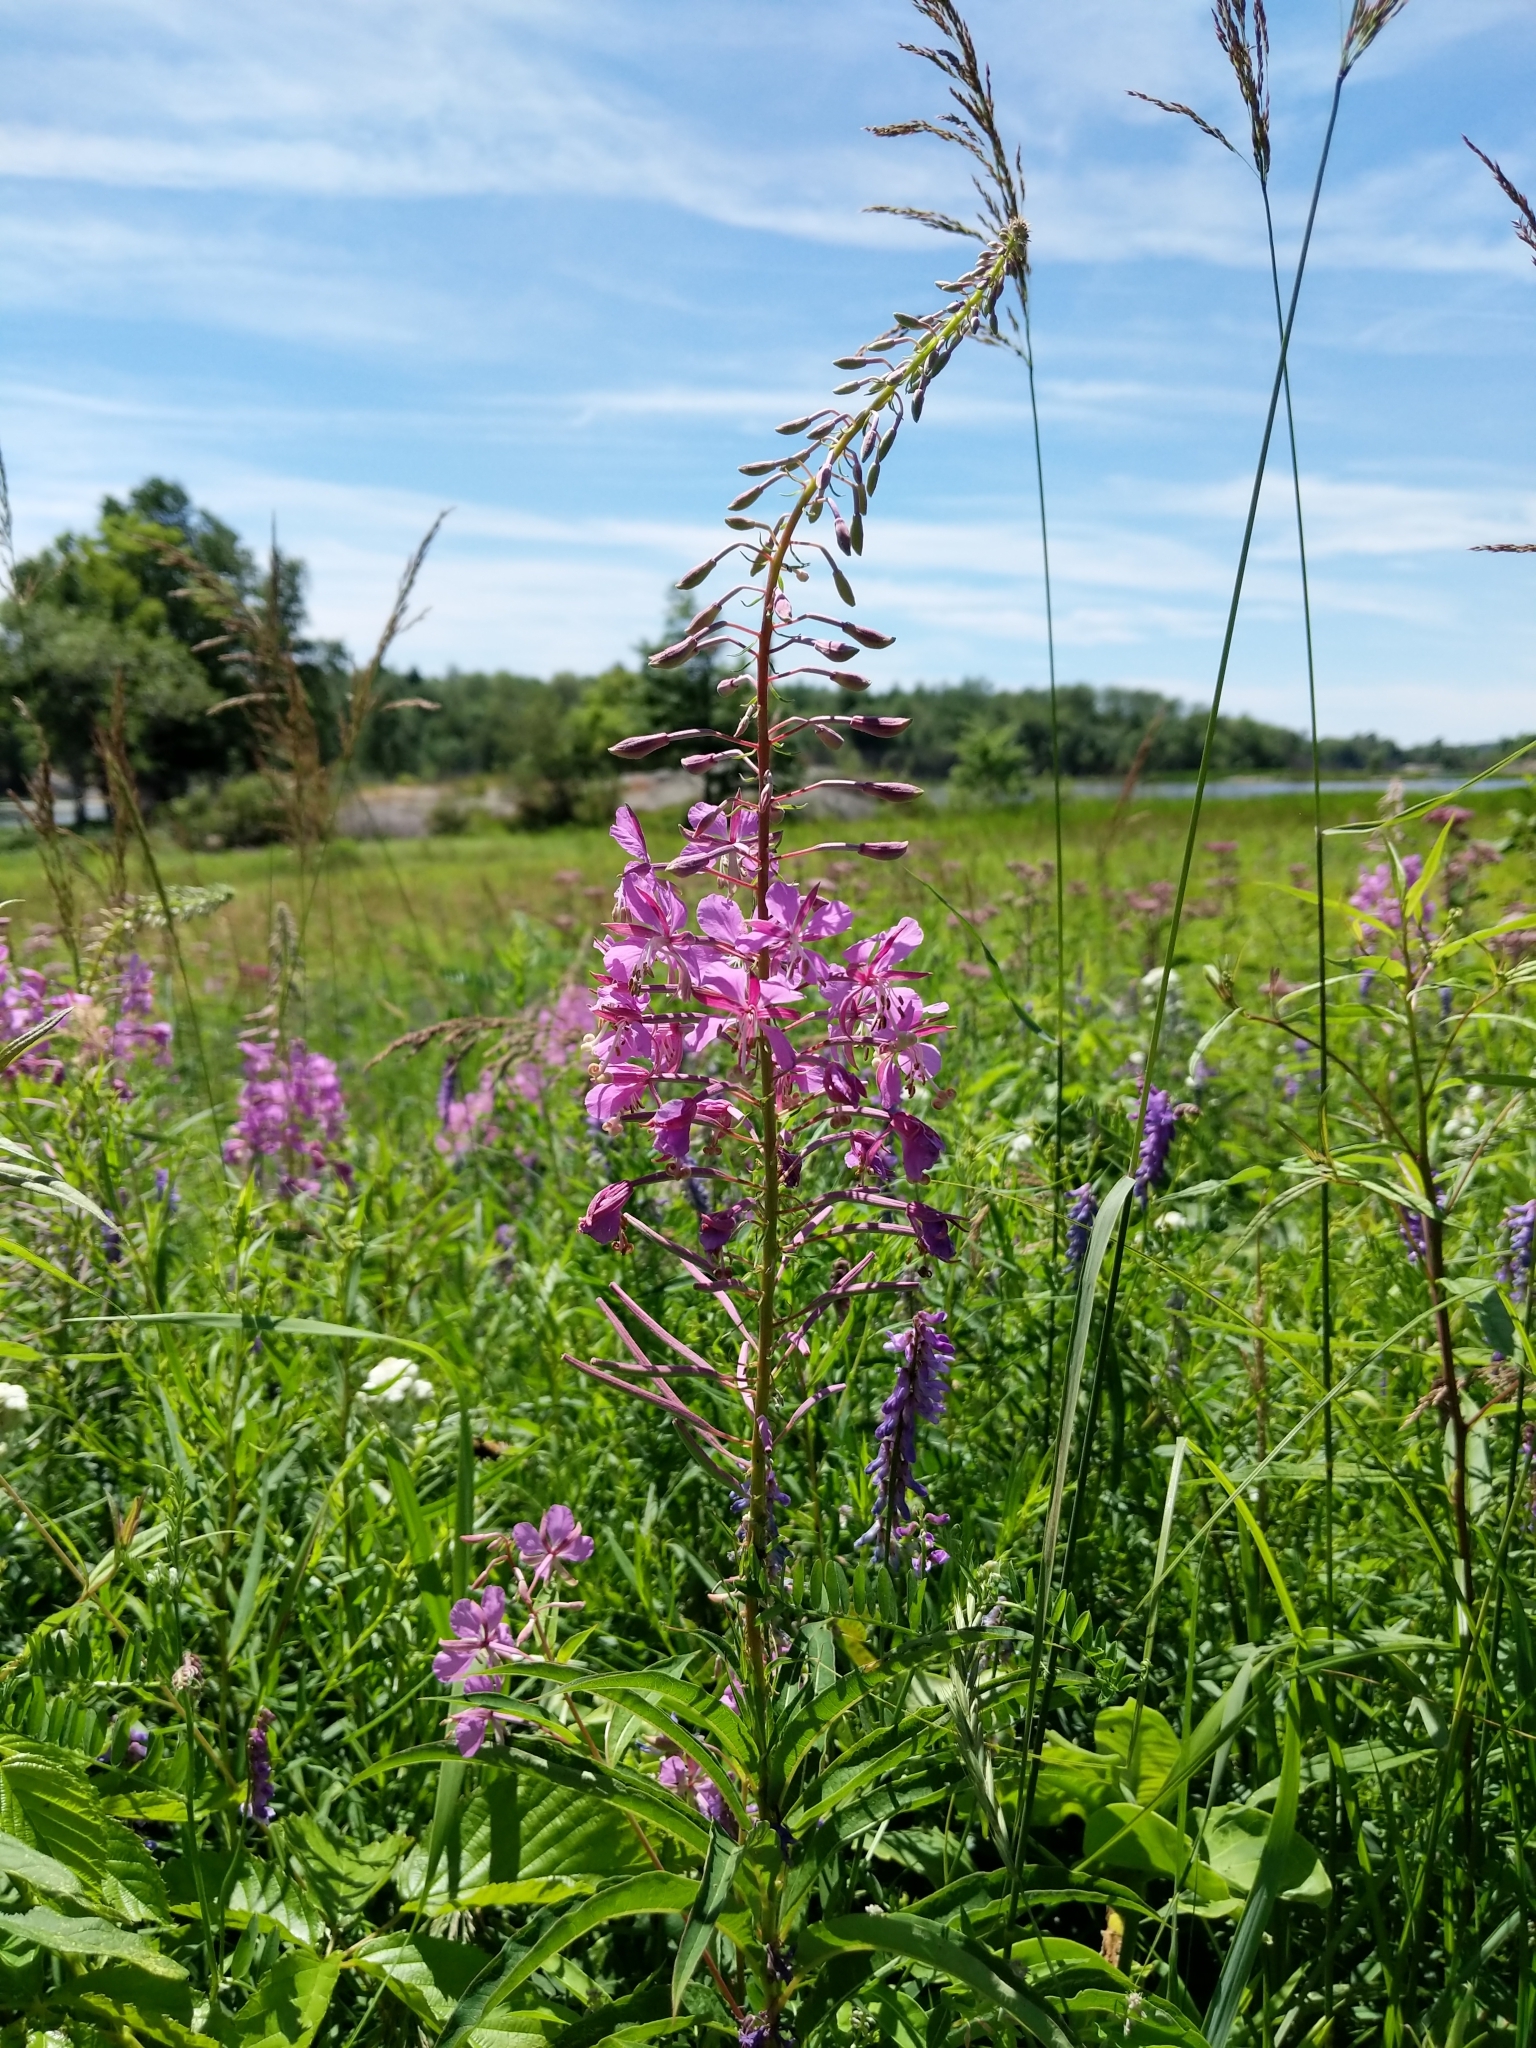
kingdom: Plantae
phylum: Tracheophyta
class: Magnoliopsida
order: Myrtales
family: Onagraceae
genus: Chamaenerion
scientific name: Chamaenerion angustifolium
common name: Fireweed
